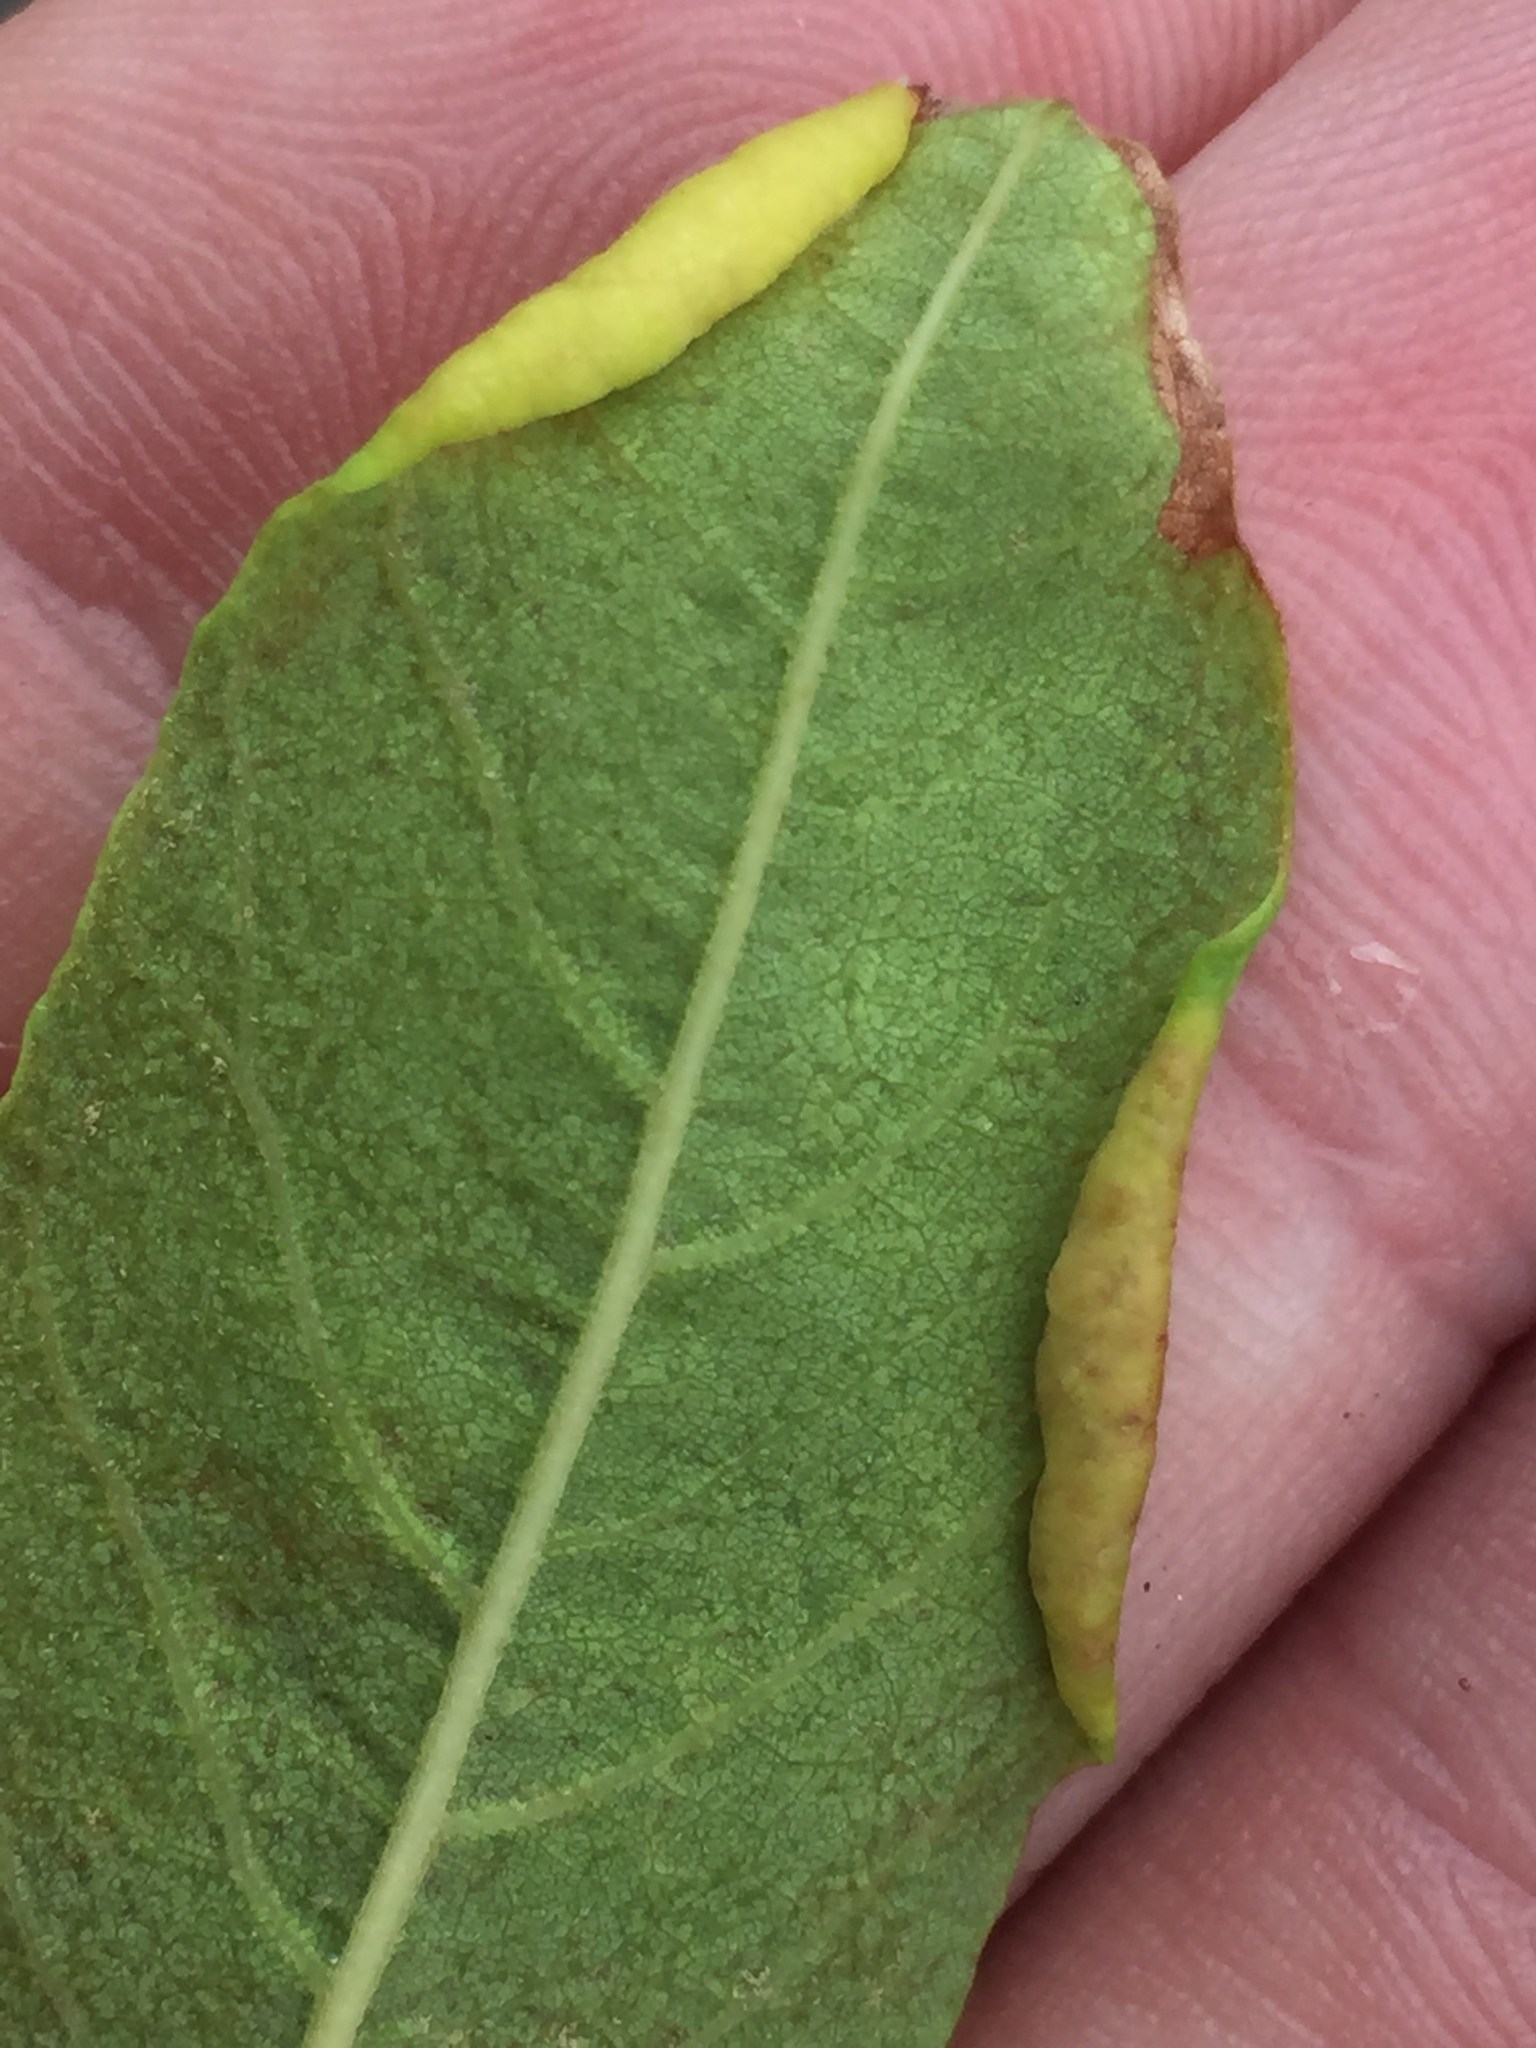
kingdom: Animalia
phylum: Arthropoda
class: Insecta
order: Hymenoptera
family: Platygastridae
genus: Platygaster
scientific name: Platygaster robiniae
